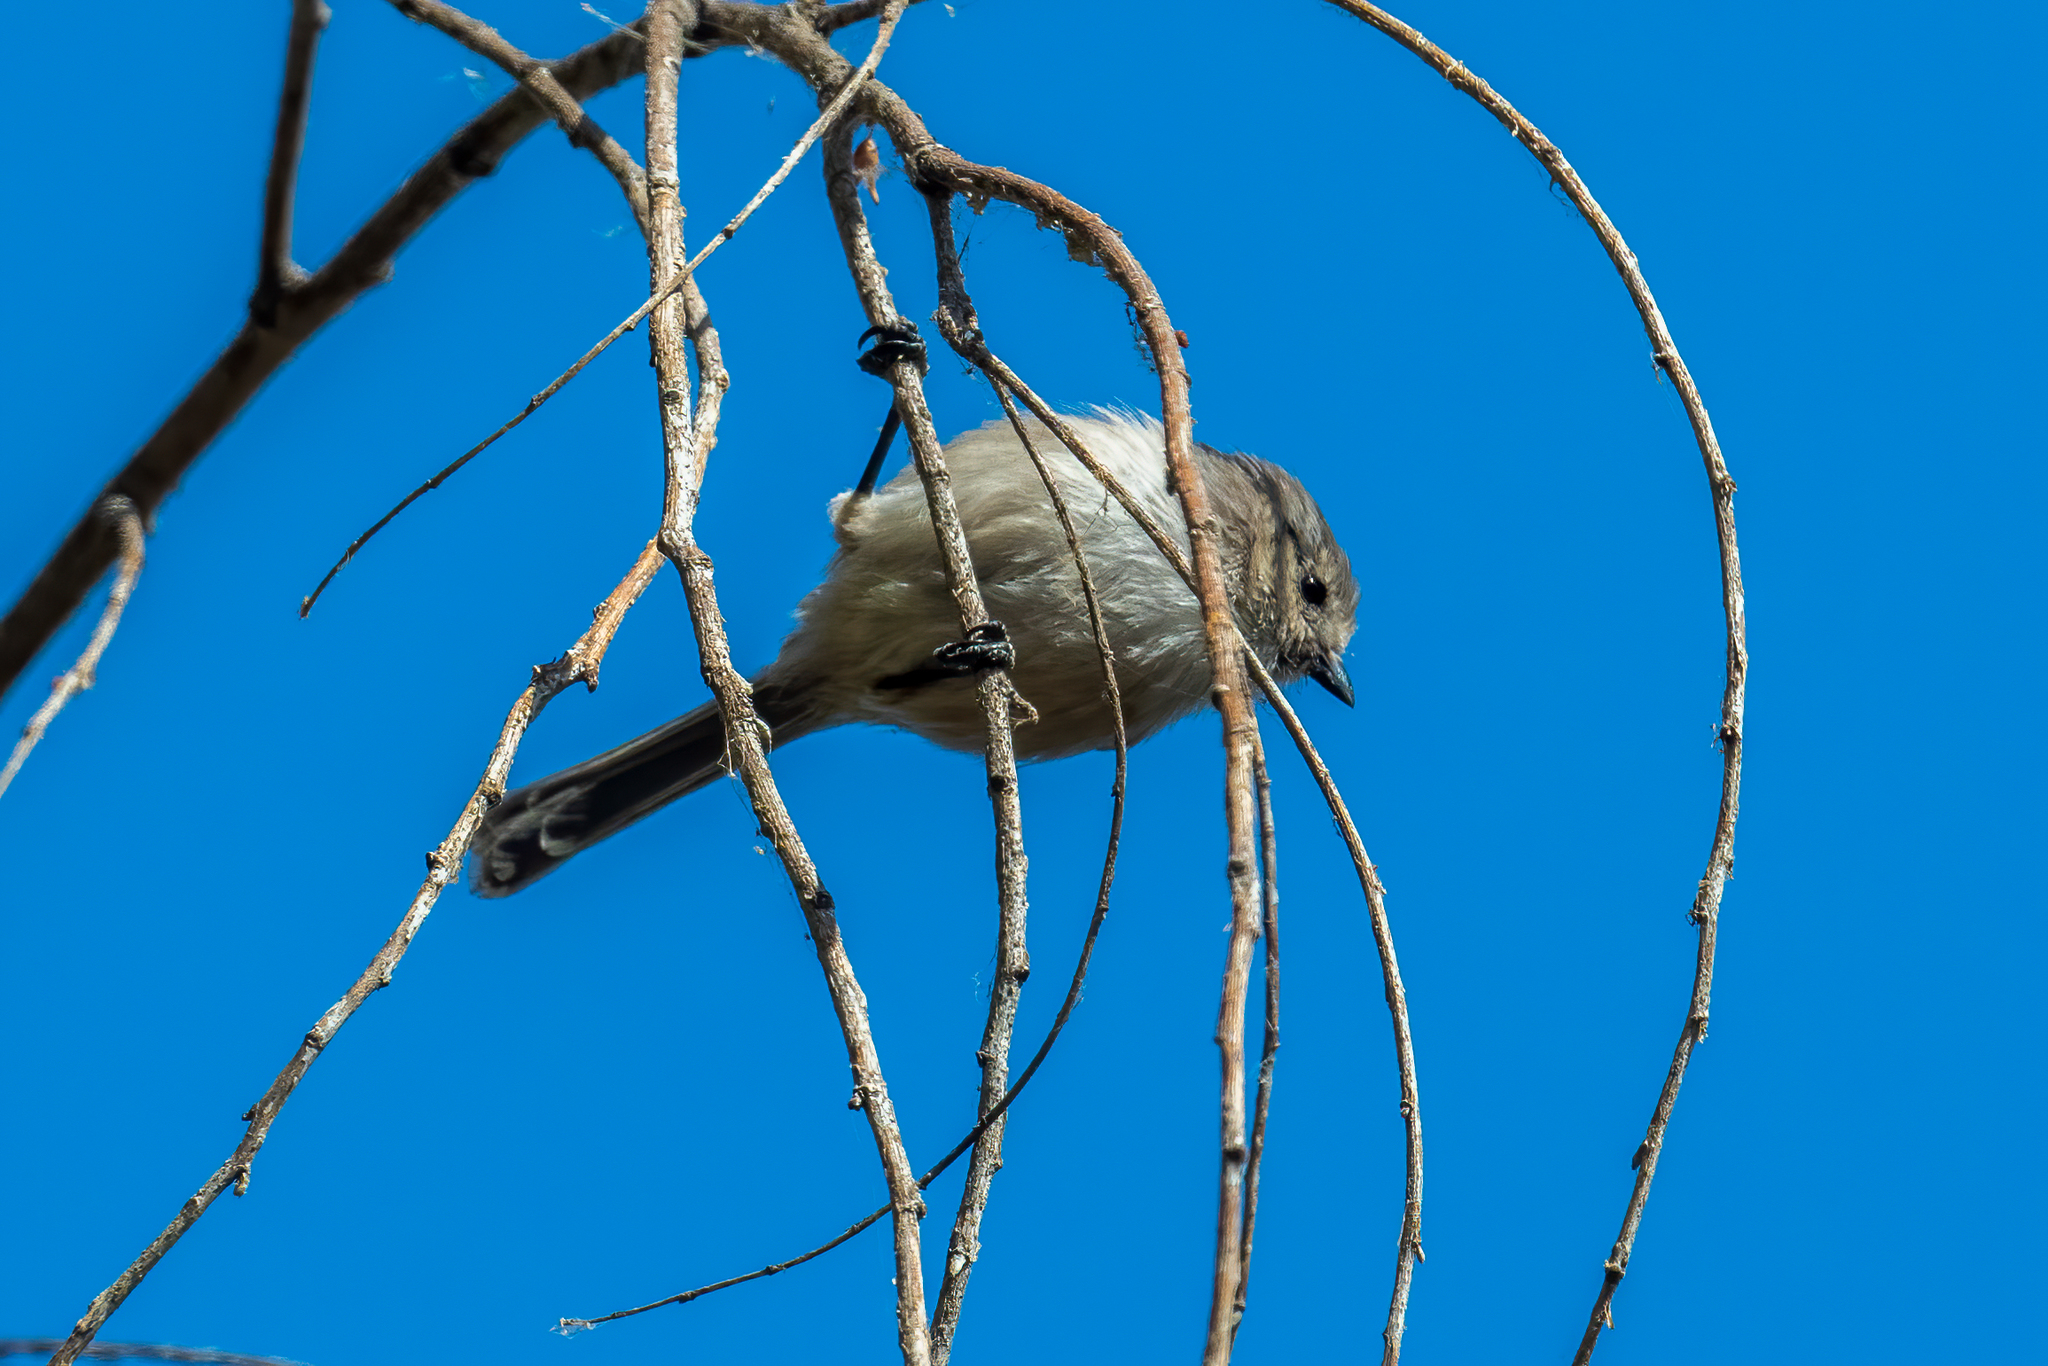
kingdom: Animalia
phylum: Chordata
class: Aves
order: Passeriformes
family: Aegithalidae
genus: Psaltriparus
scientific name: Psaltriparus minimus
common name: American bushtit
